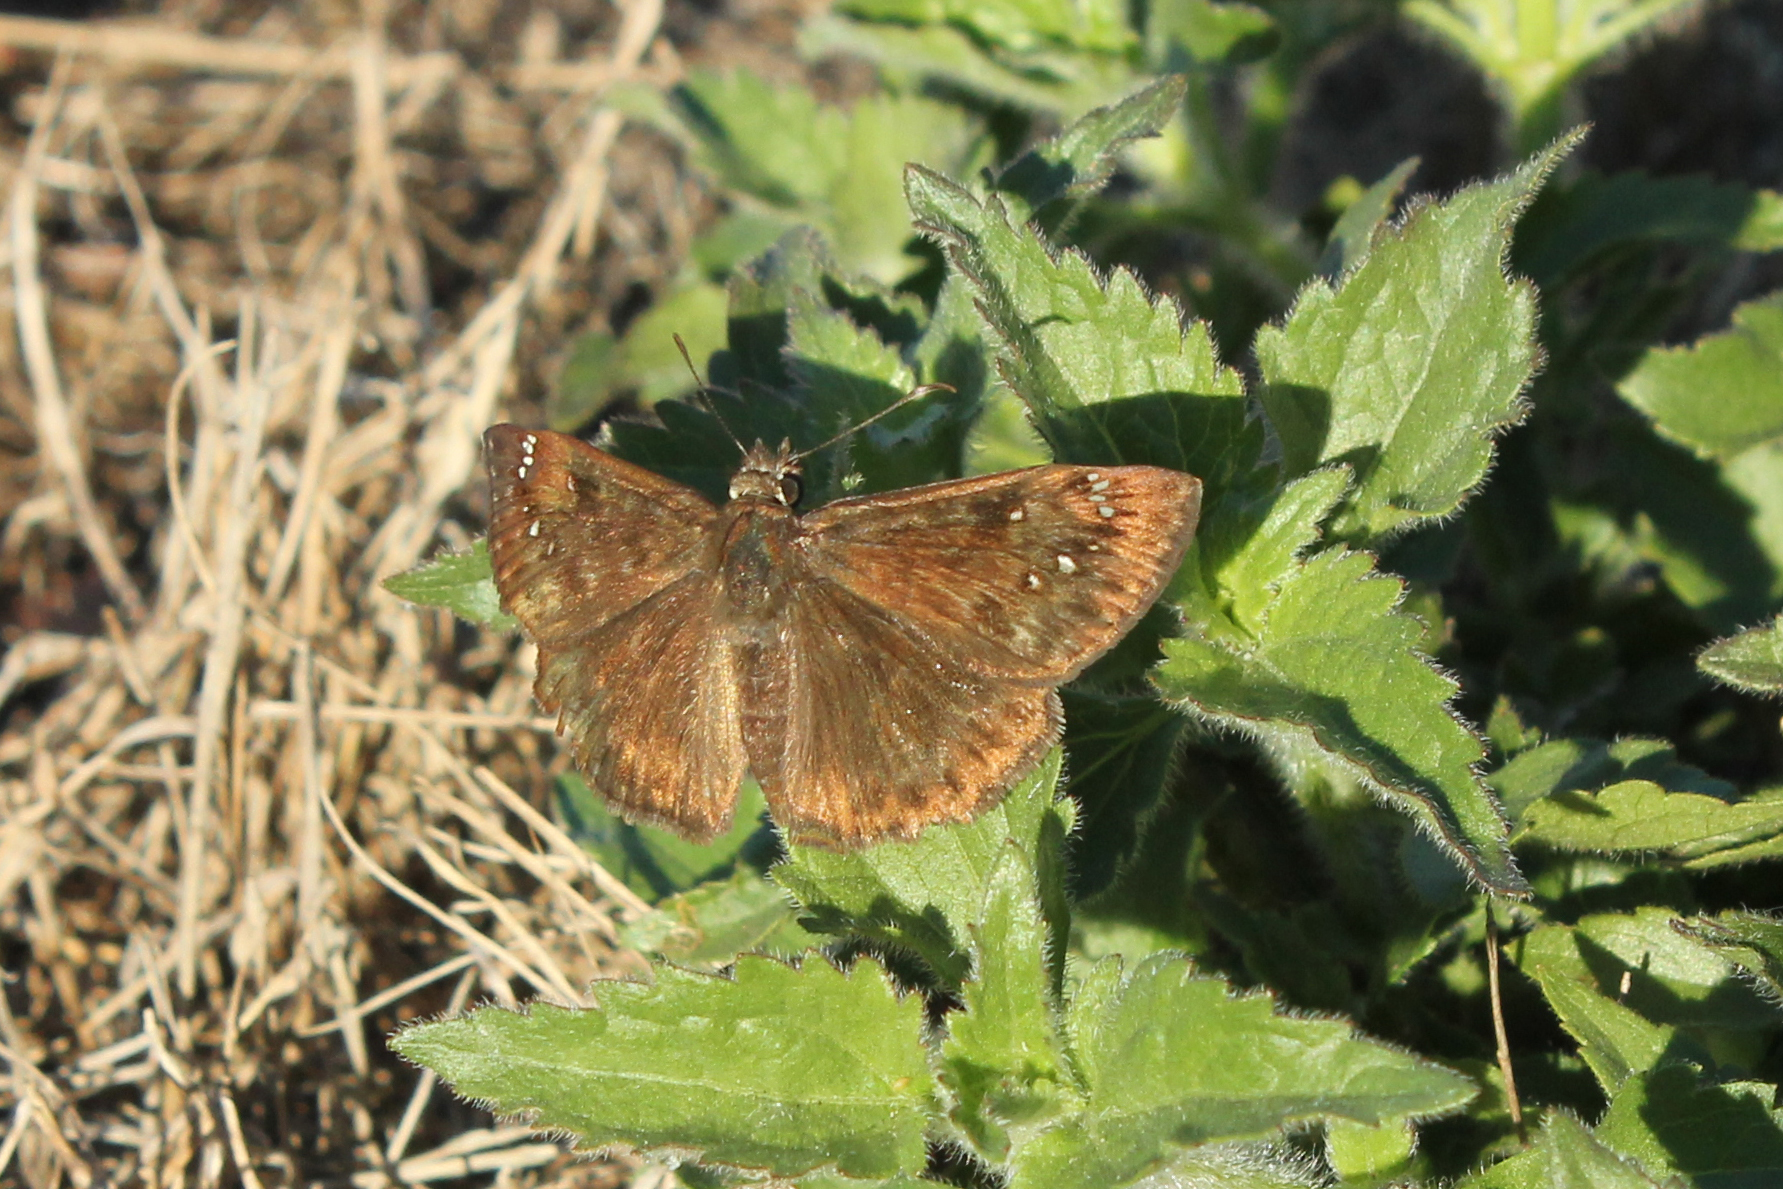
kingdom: Animalia
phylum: Arthropoda
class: Insecta
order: Lepidoptera
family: Hesperiidae
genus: Erynnis
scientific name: Erynnis horatius
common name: Horace's duskywing
